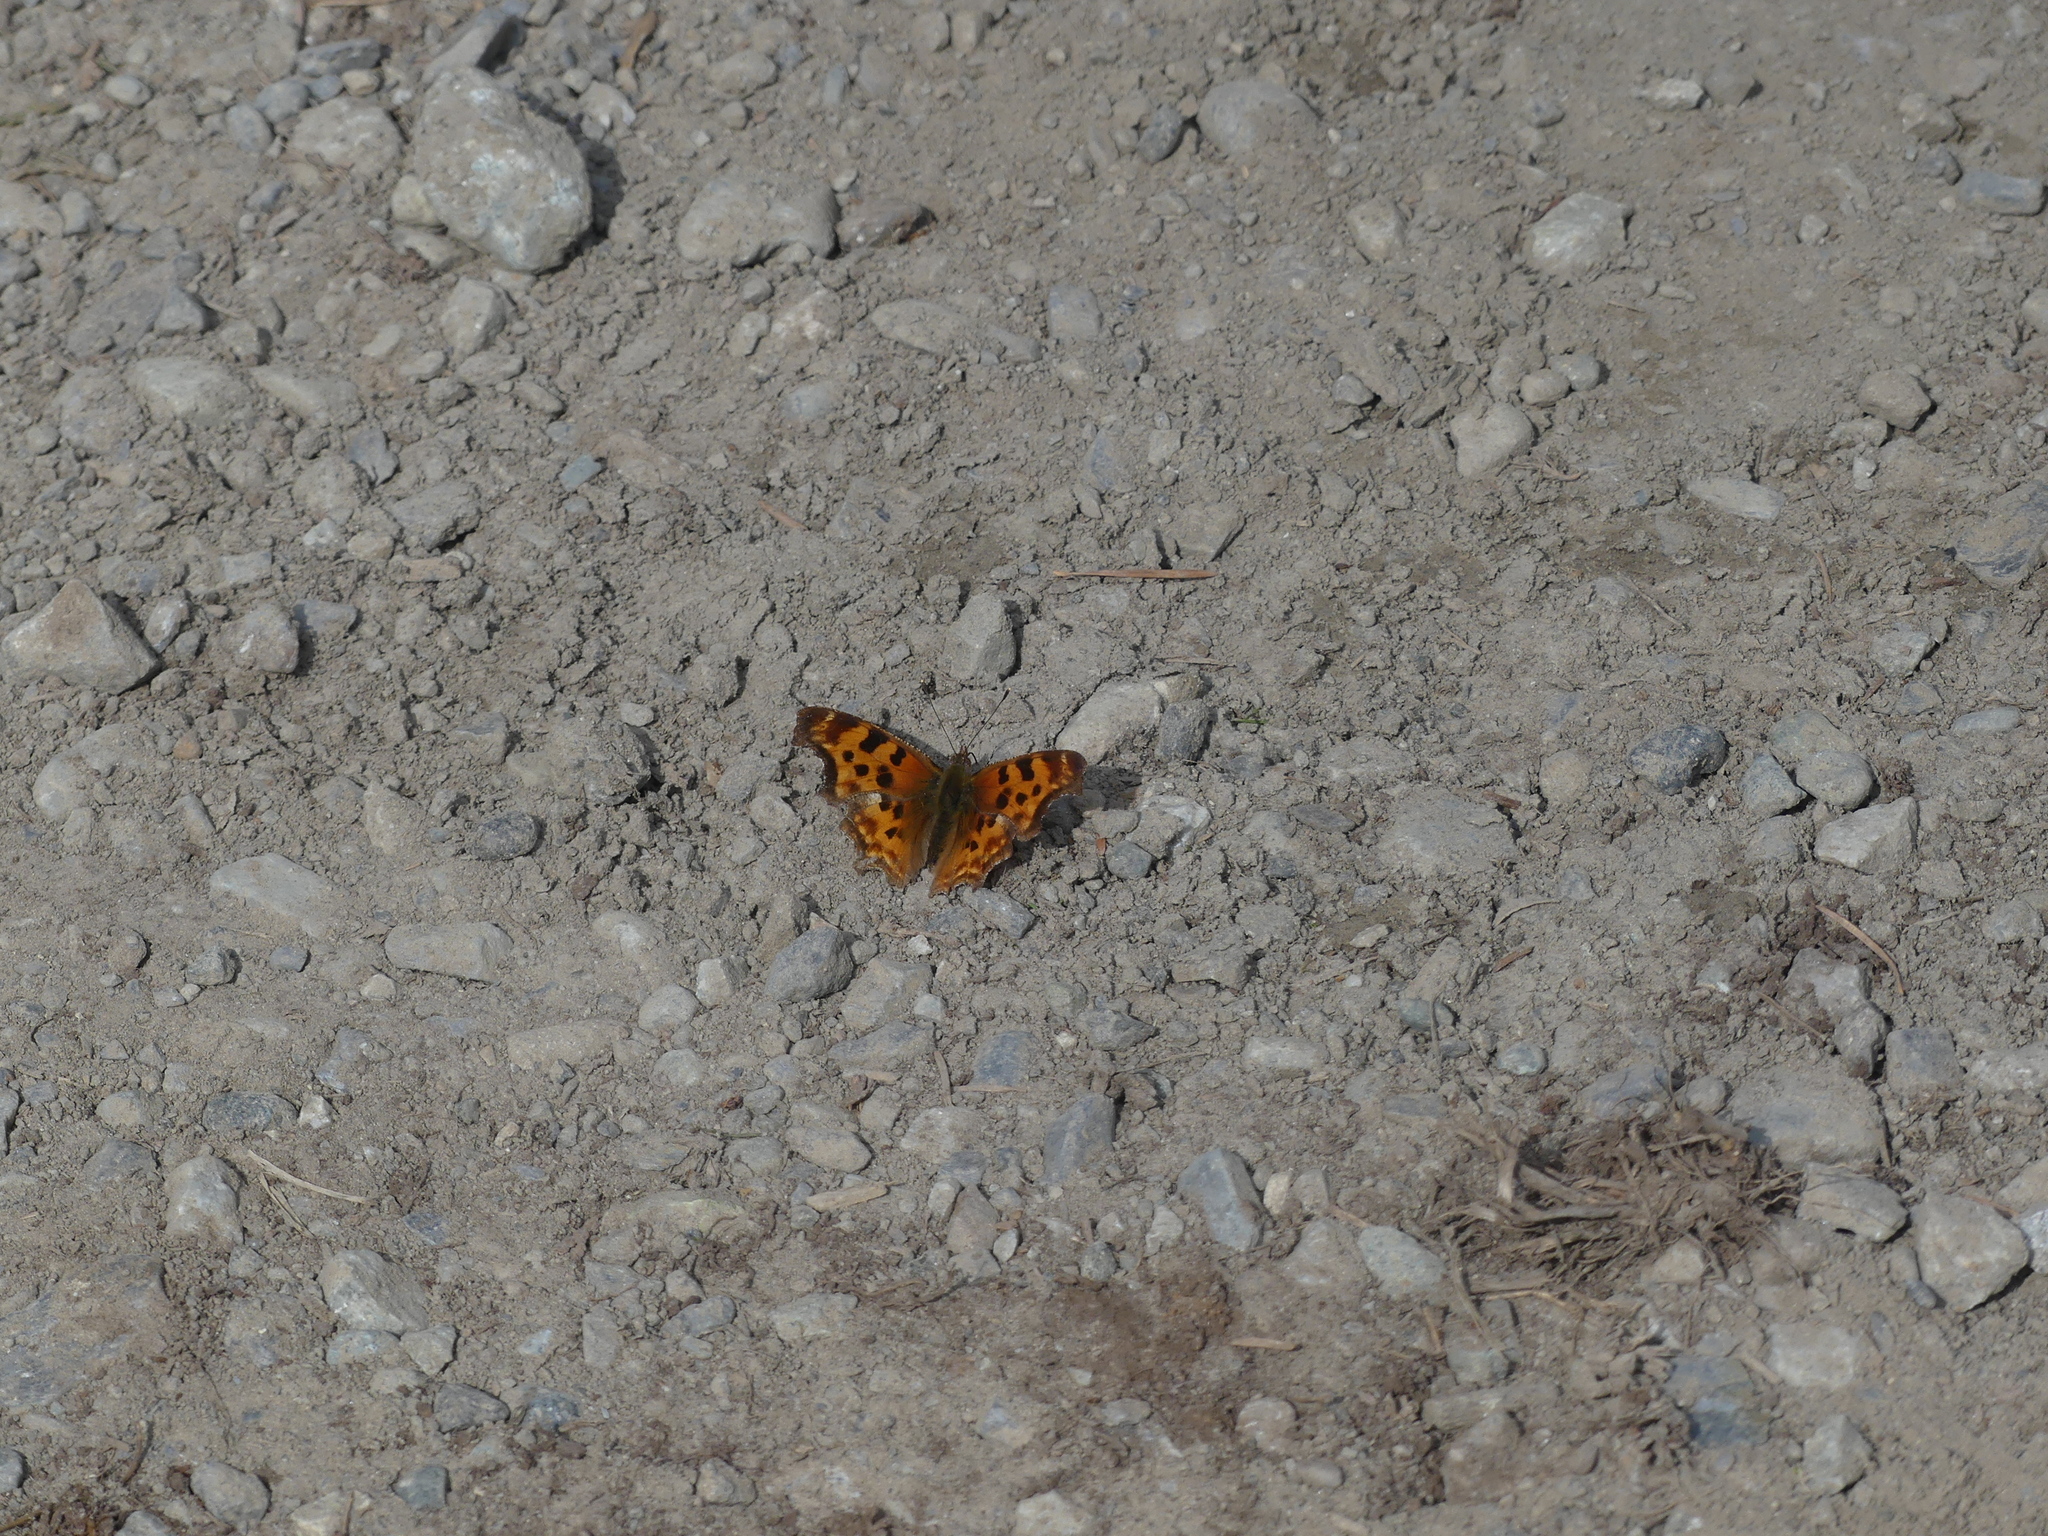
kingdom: Animalia
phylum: Arthropoda
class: Insecta
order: Lepidoptera
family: Nymphalidae
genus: Polygonia
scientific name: Polygonia satyrus
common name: Satyr angle wing
